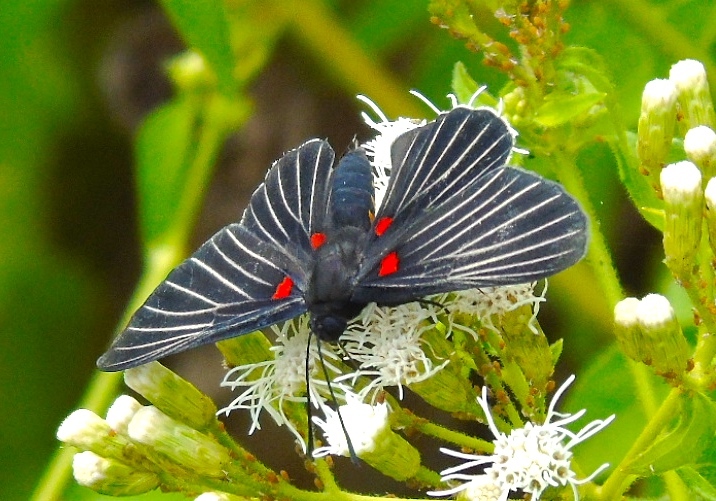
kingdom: Animalia
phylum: Arthropoda
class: Insecta
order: Lepidoptera
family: Lycaenidae
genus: Melanis
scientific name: Melanis
